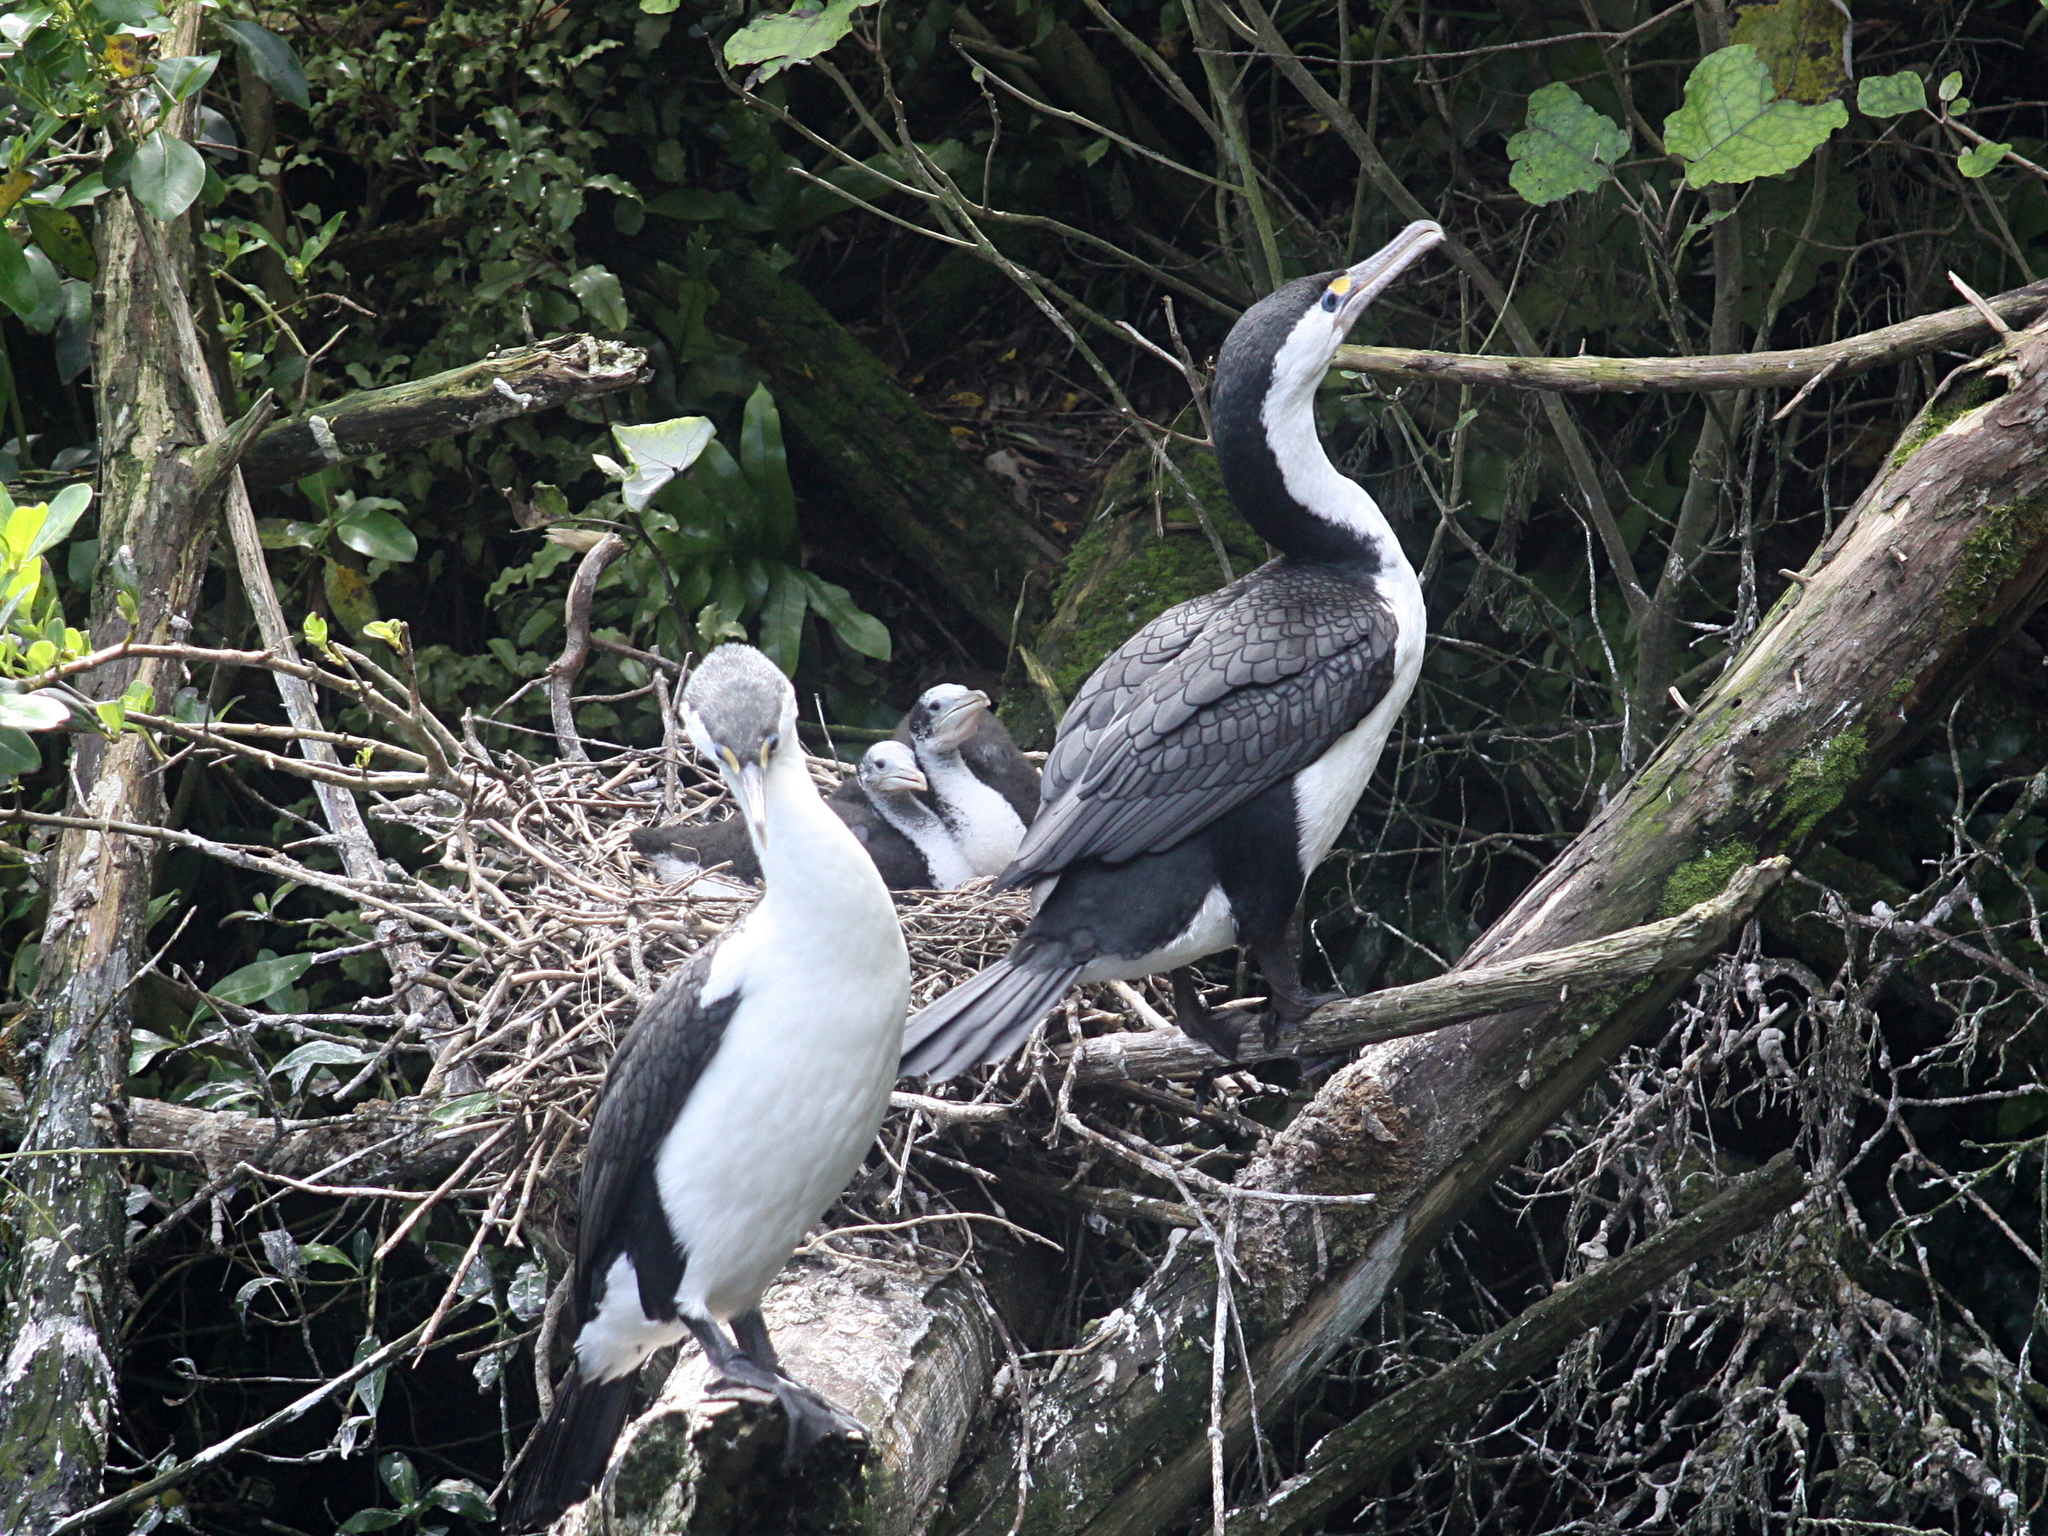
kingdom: Animalia
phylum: Chordata
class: Aves
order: Suliformes
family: Phalacrocoracidae
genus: Phalacrocorax
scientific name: Phalacrocorax varius
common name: Pied cormorant
